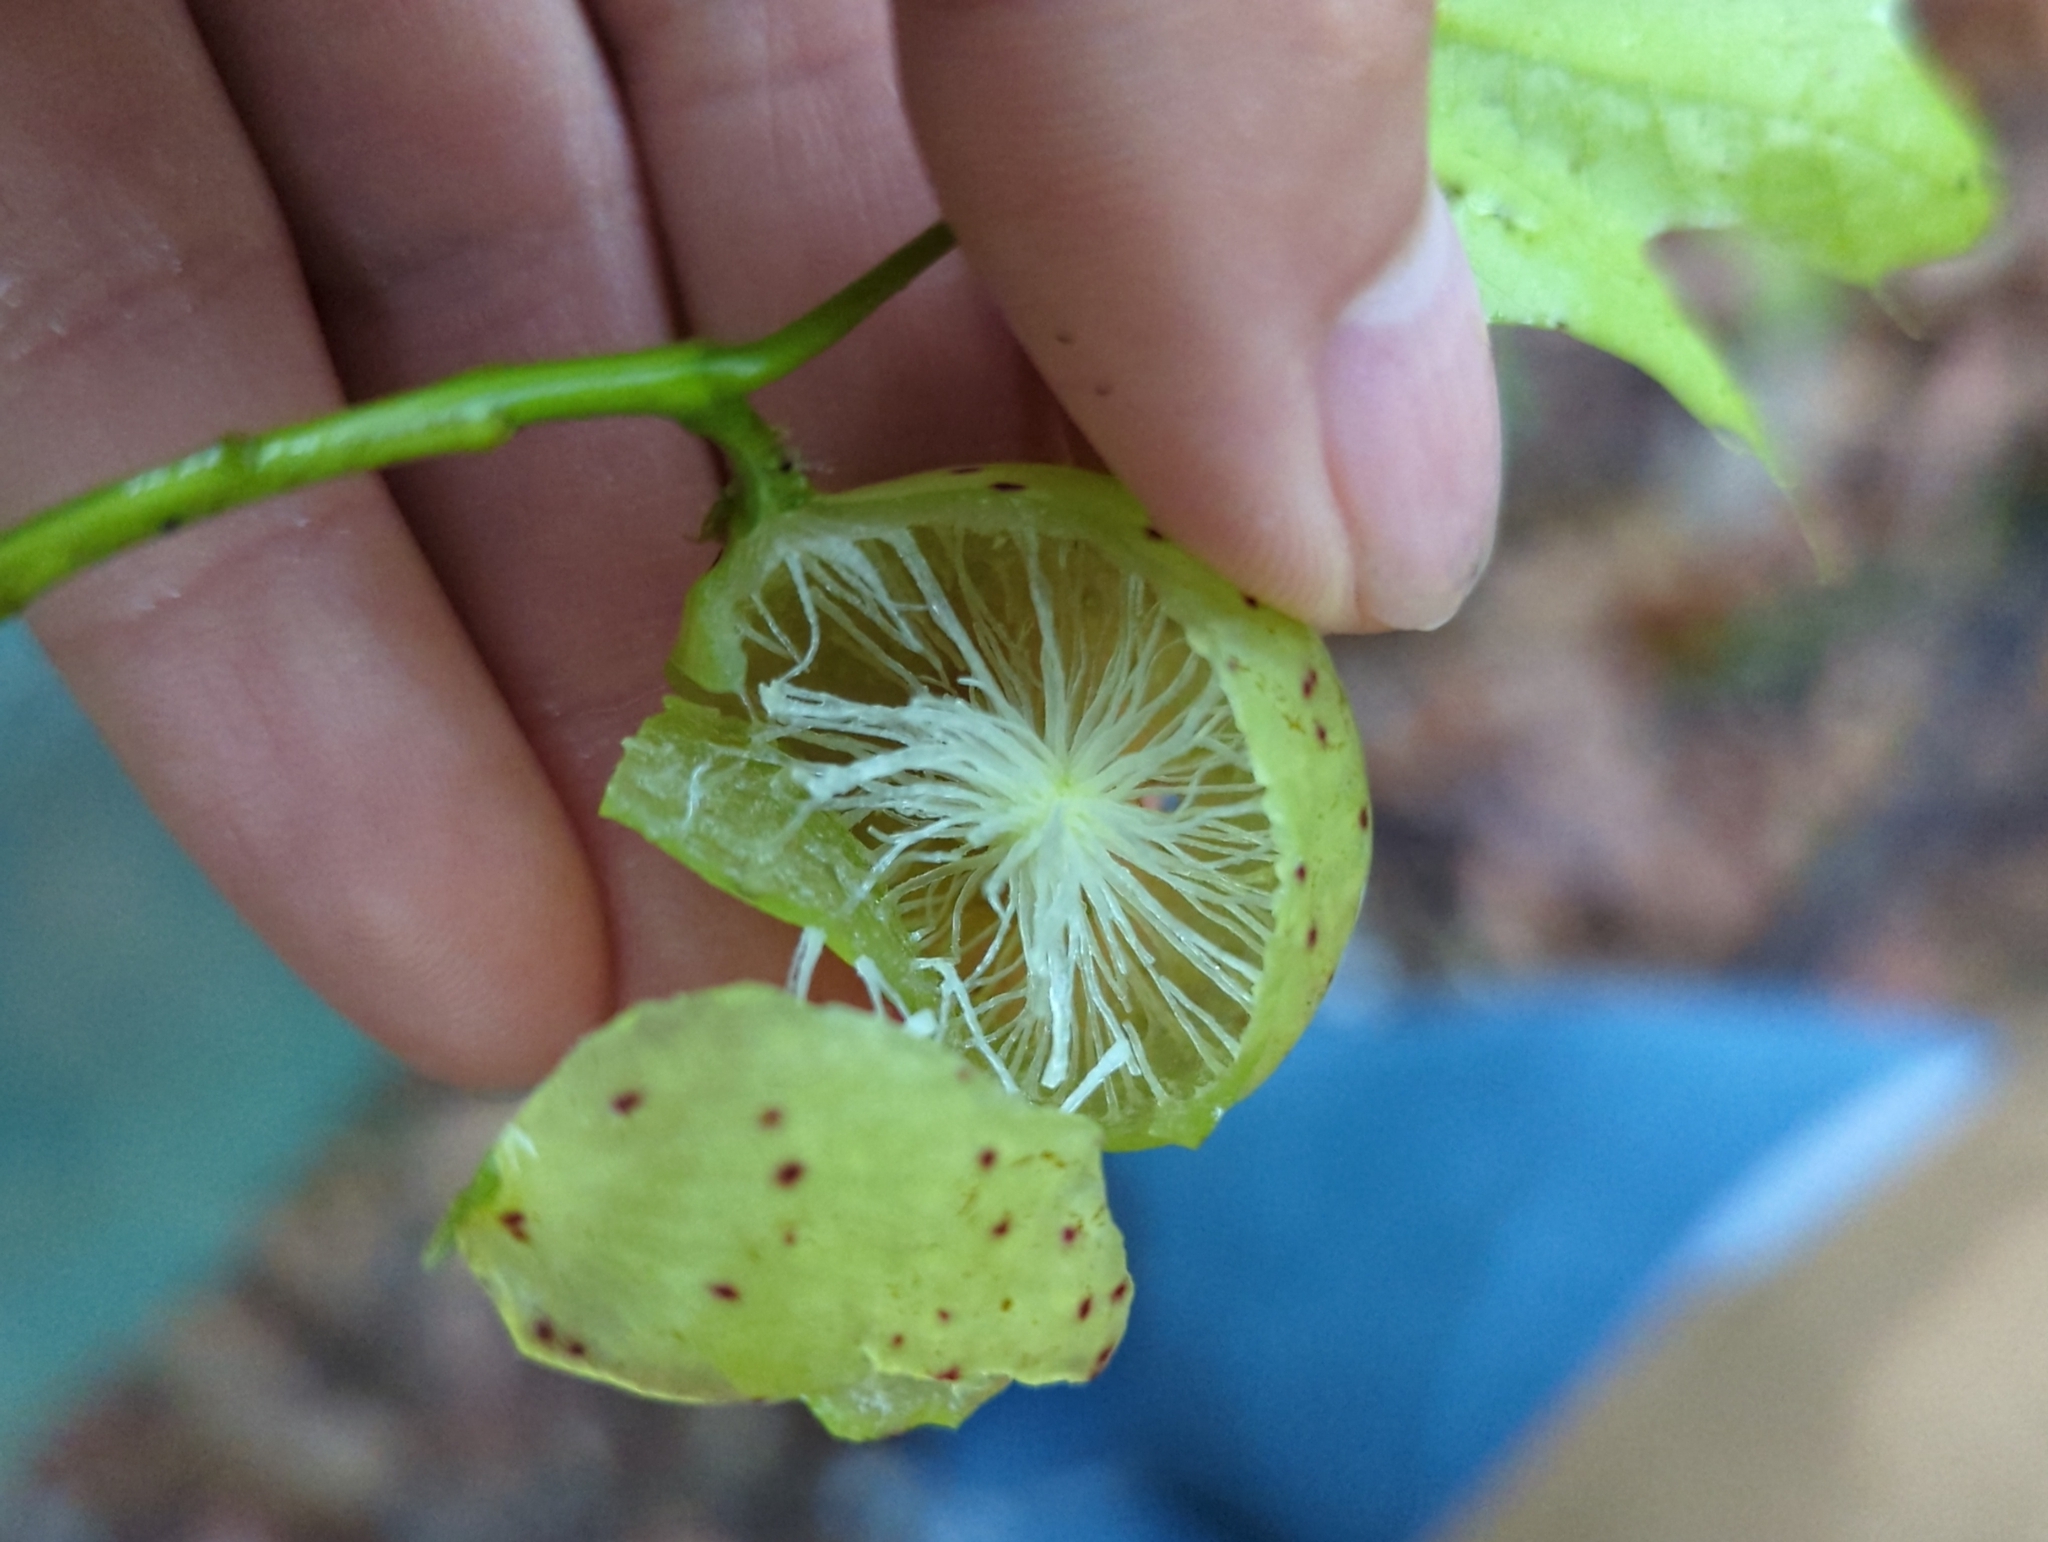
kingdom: Animalia
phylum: Arthropoda
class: Insecta
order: Hymenoptera
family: Cynipidae
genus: Amphibolips
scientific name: Amphibolips
